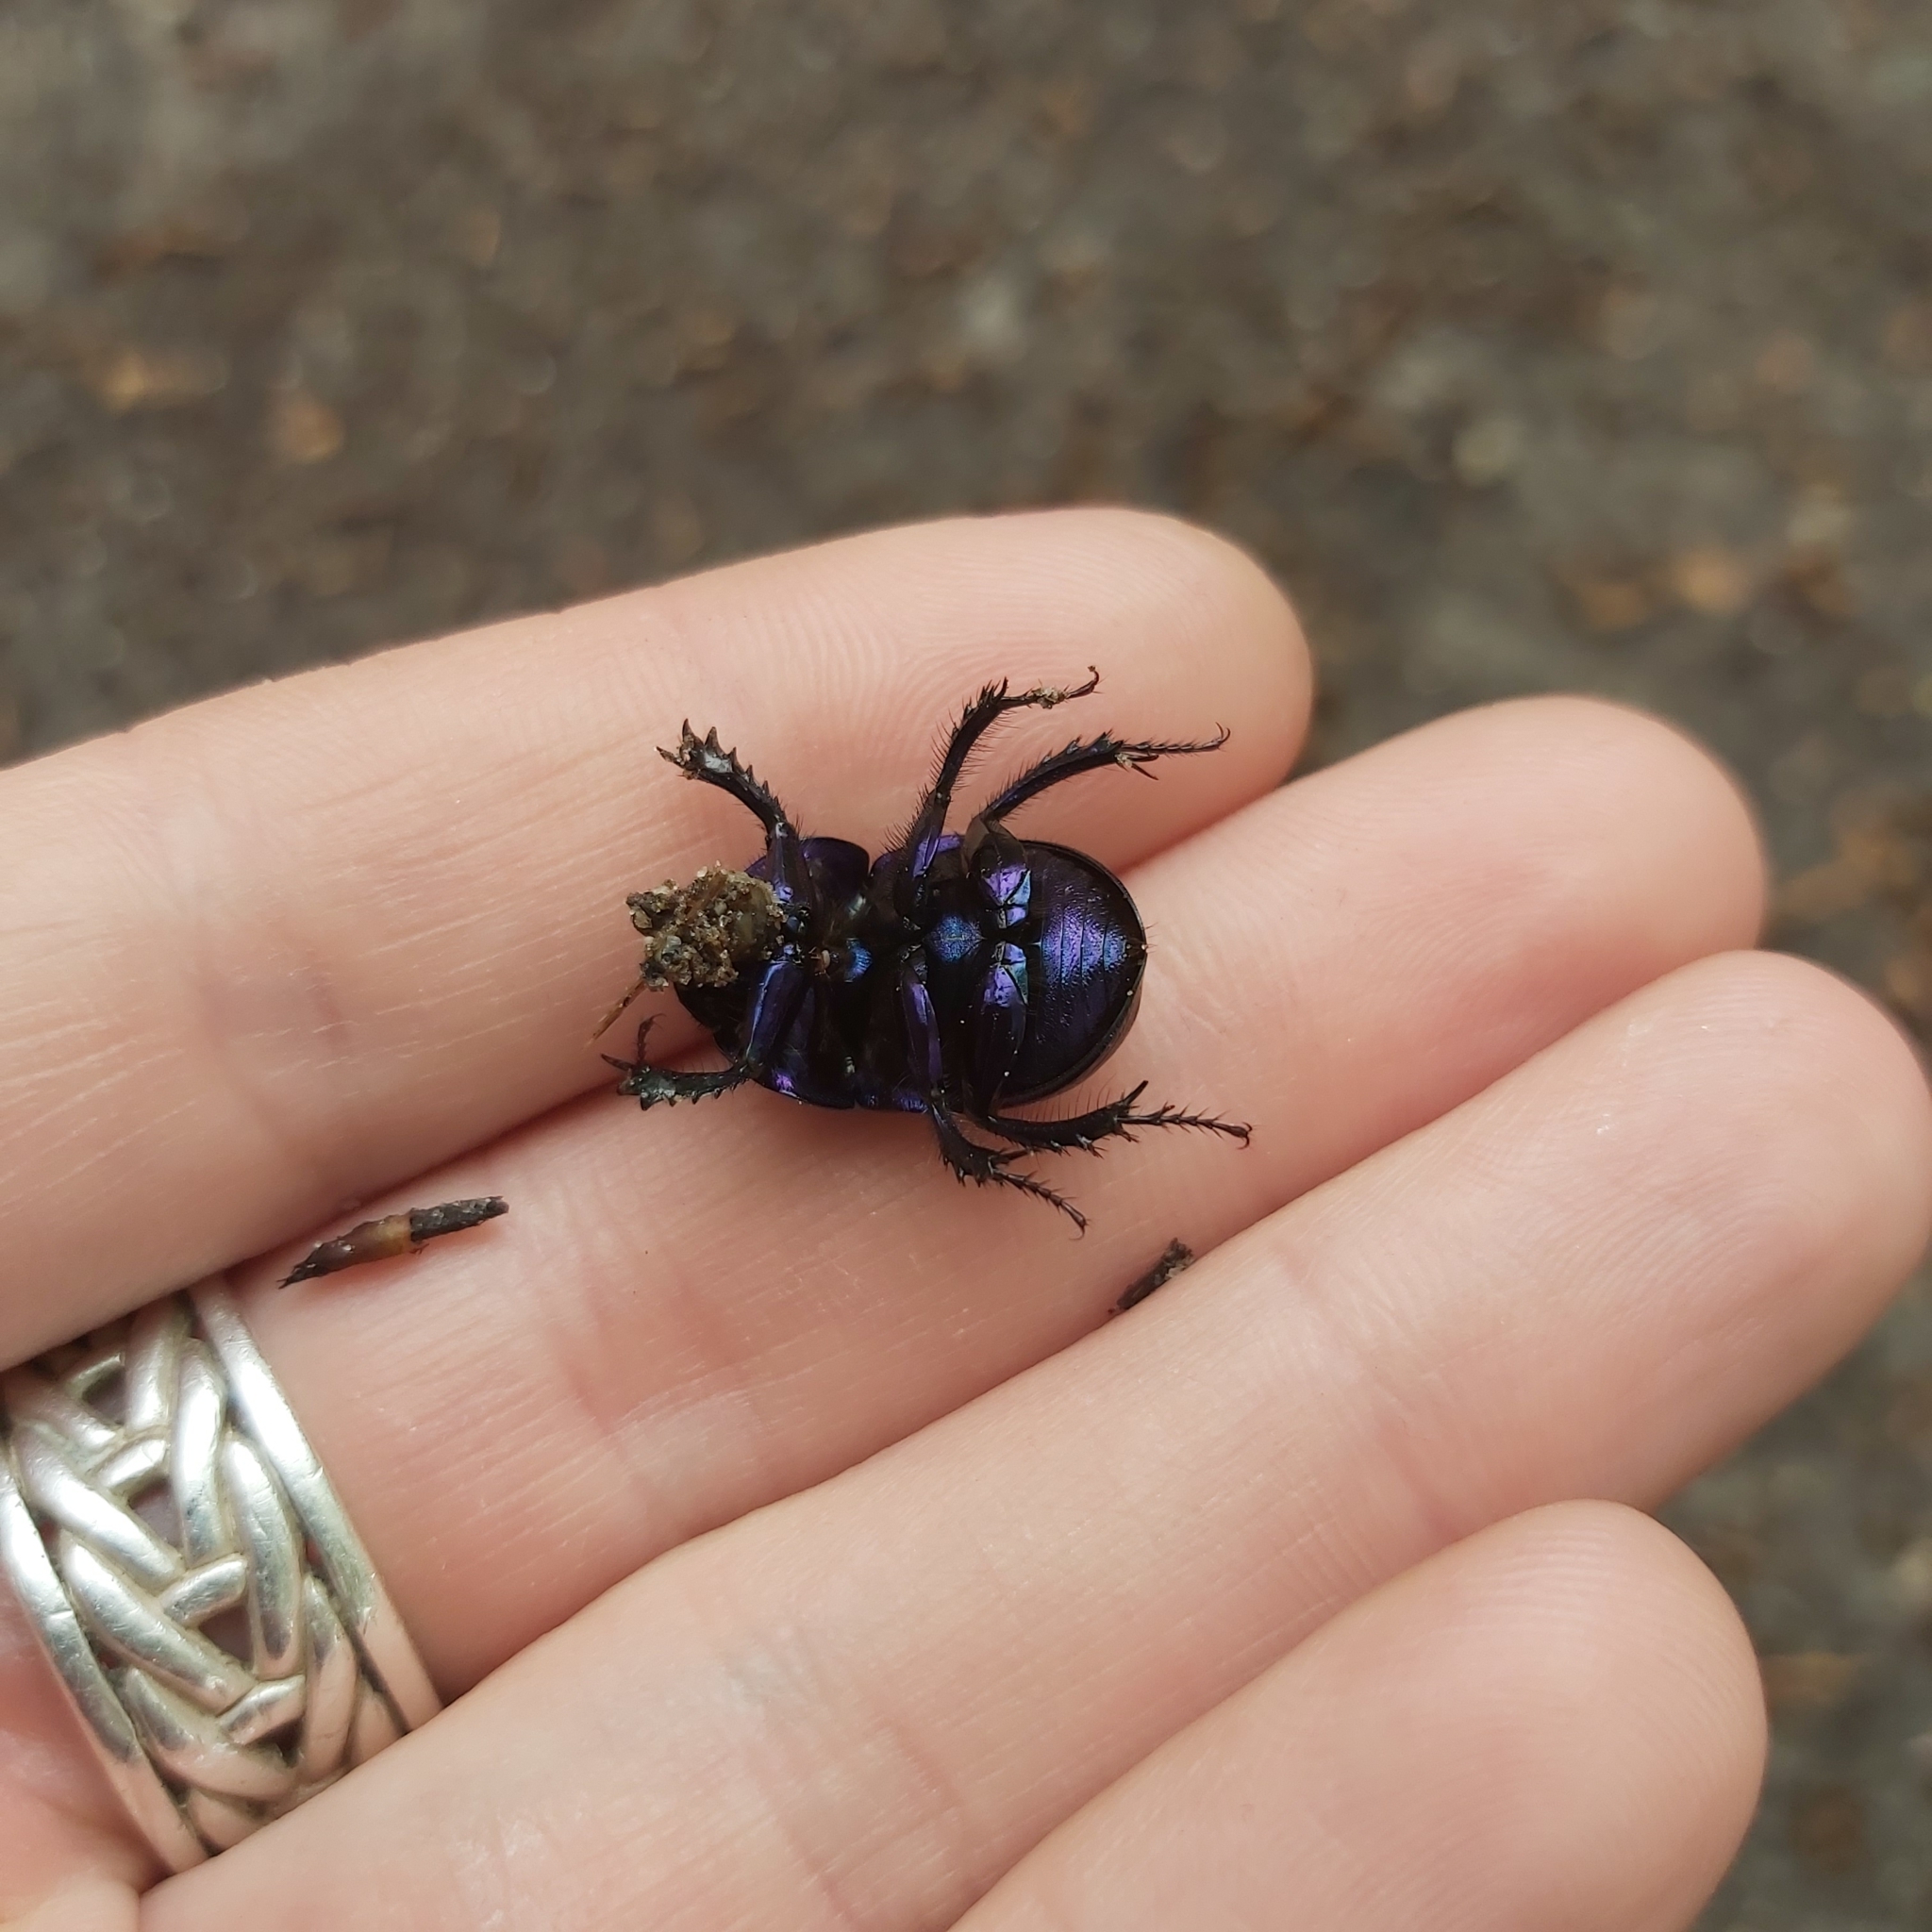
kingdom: Animalia
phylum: Arthropoda
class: Insecta
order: Coleoptera
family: Geotrupidae
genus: Anoplotrupes
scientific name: Anoplotrupes stercorosus
